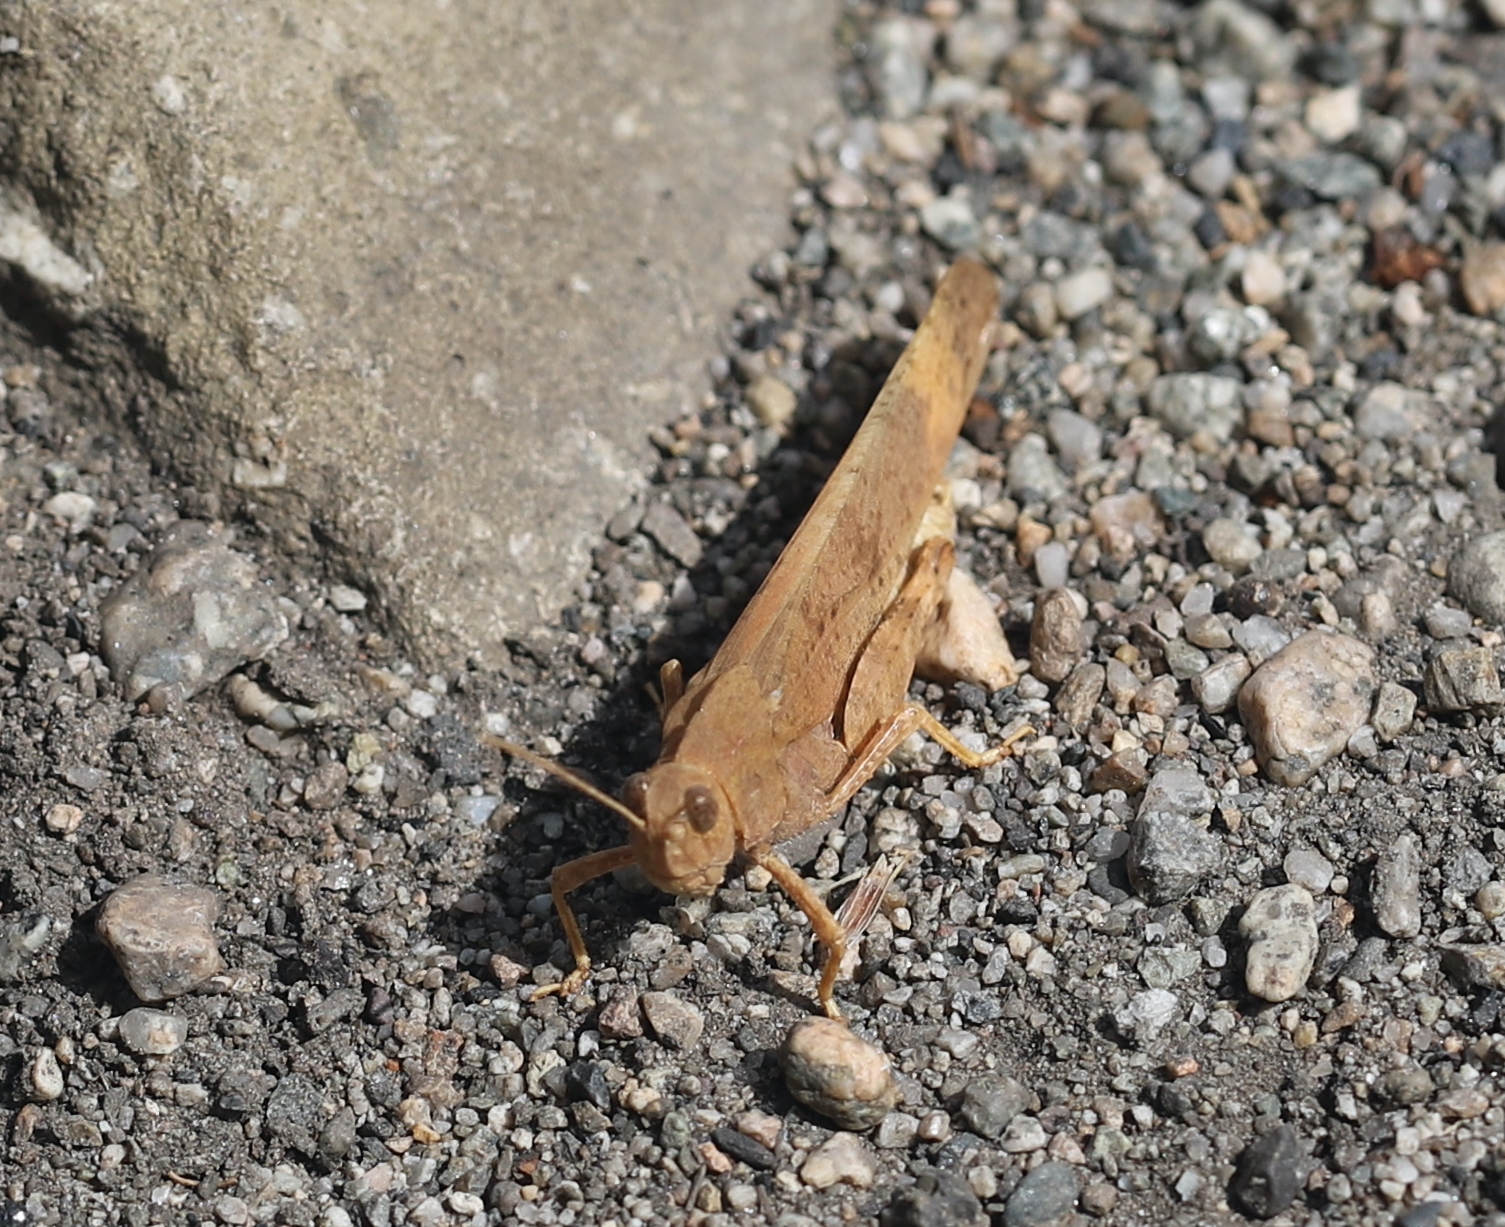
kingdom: Animalia
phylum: Arthropoda
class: Insecta
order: Orthoptera
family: Acrididae
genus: Dissosteira
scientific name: Dissosteira carolina
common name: Carolina grasshopper
